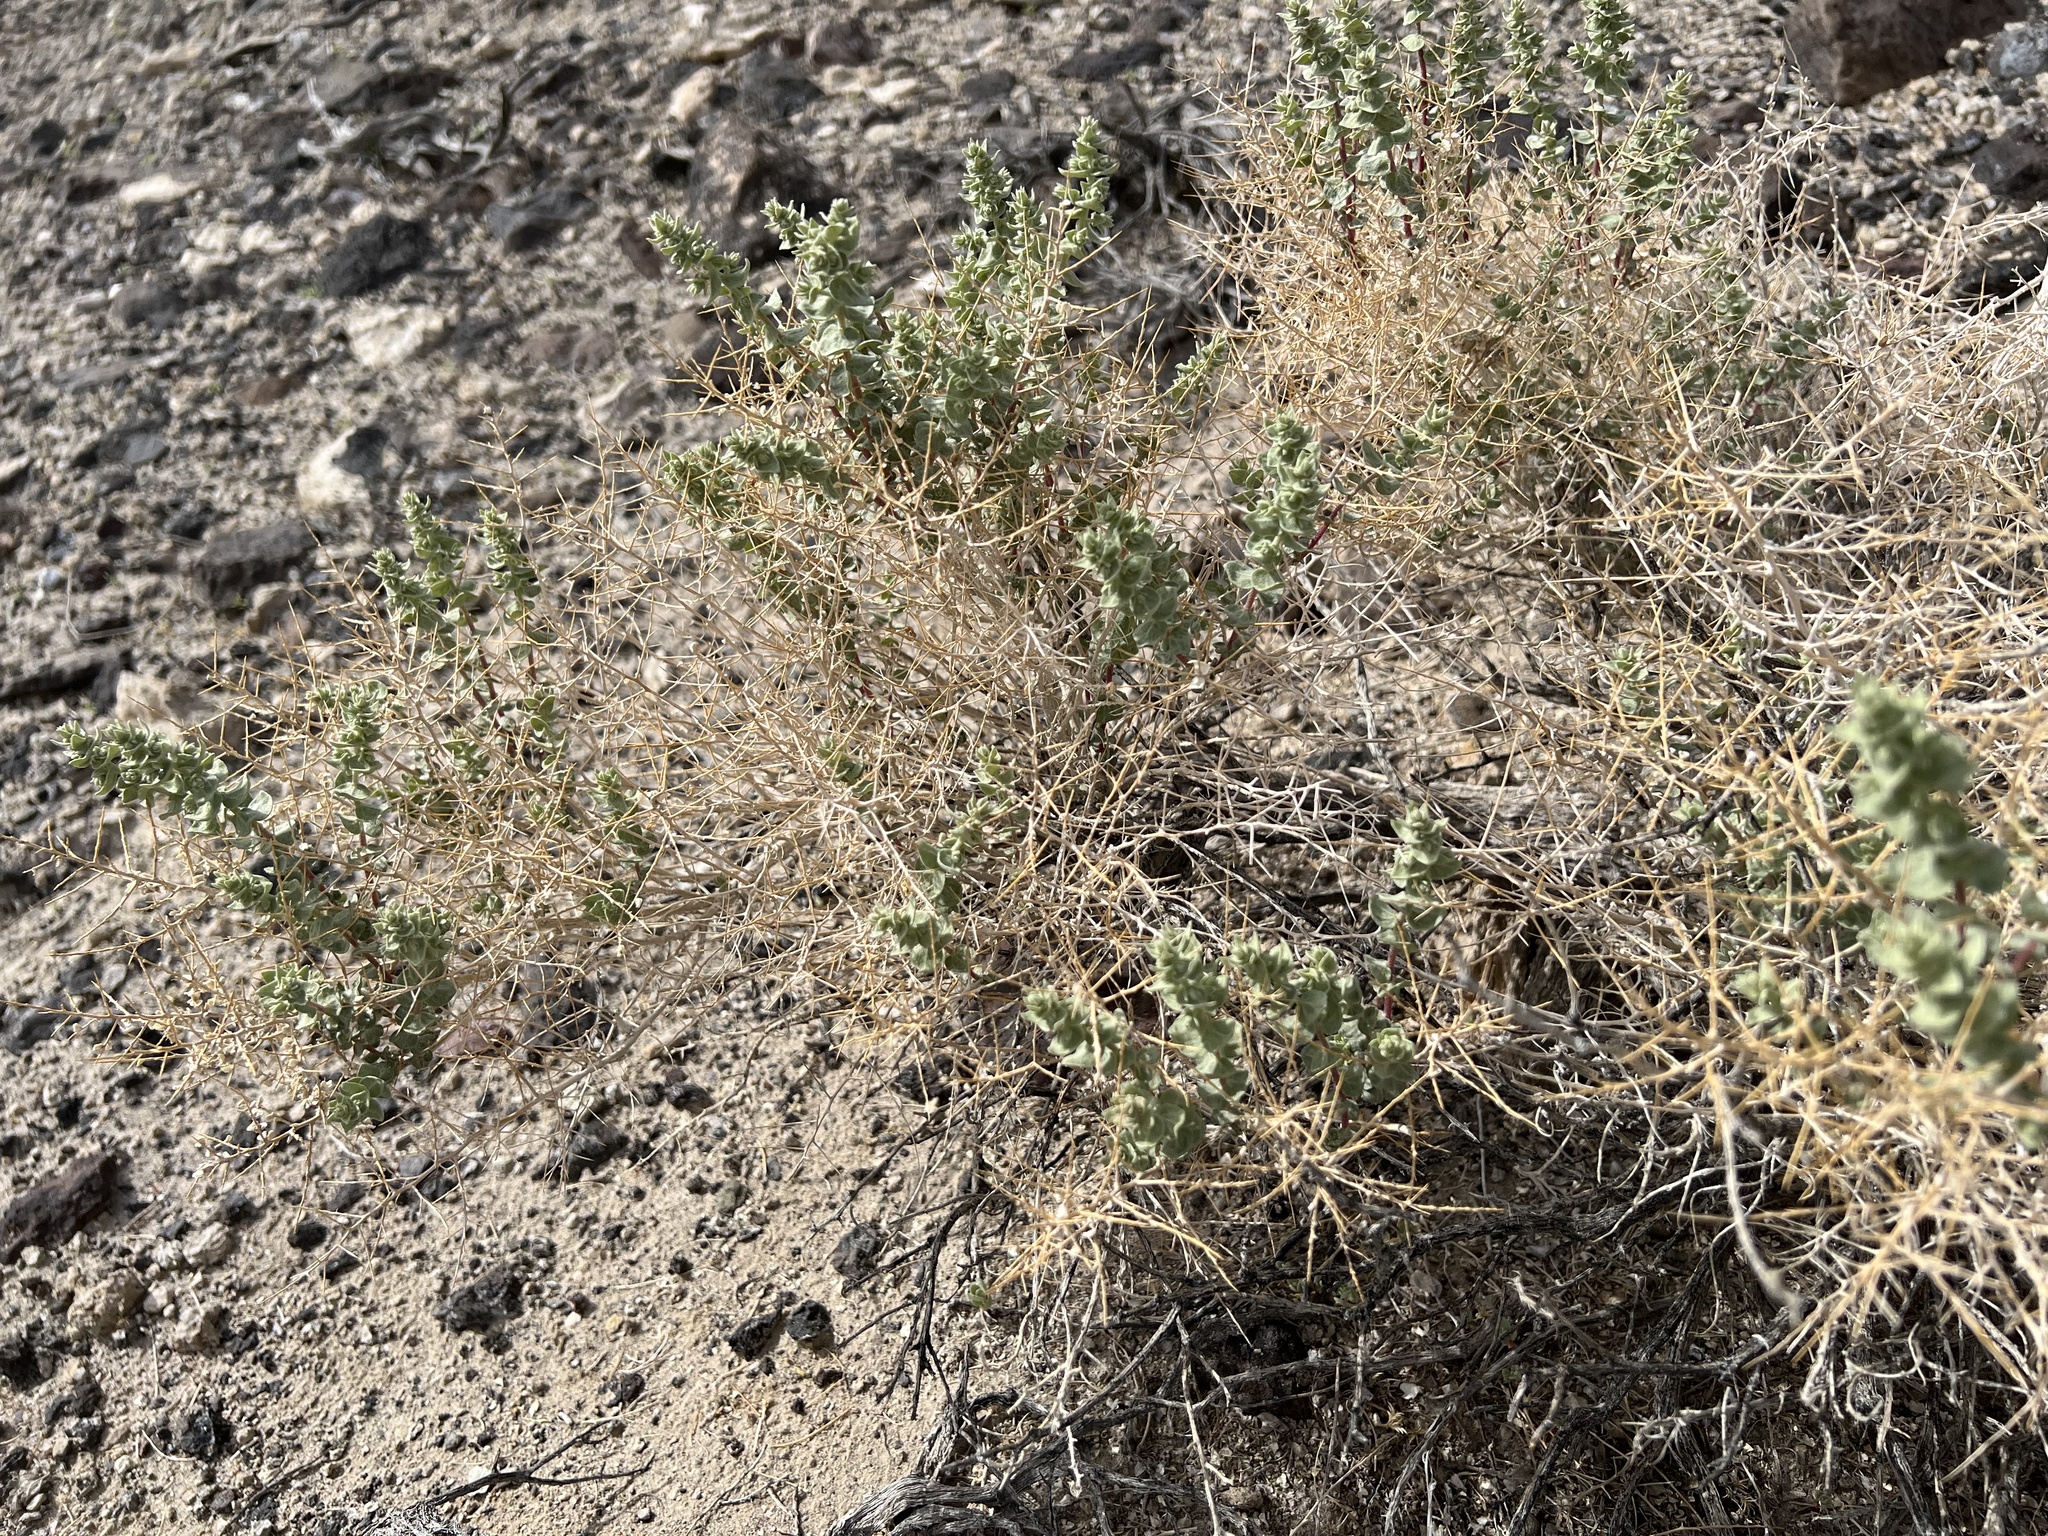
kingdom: Plantae
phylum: Tracheophyta
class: Magnoliopsida
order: Caryophyllales
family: Amaranthaceae
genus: Atriplex
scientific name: Atriplex parryi
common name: Parry's saltbush
